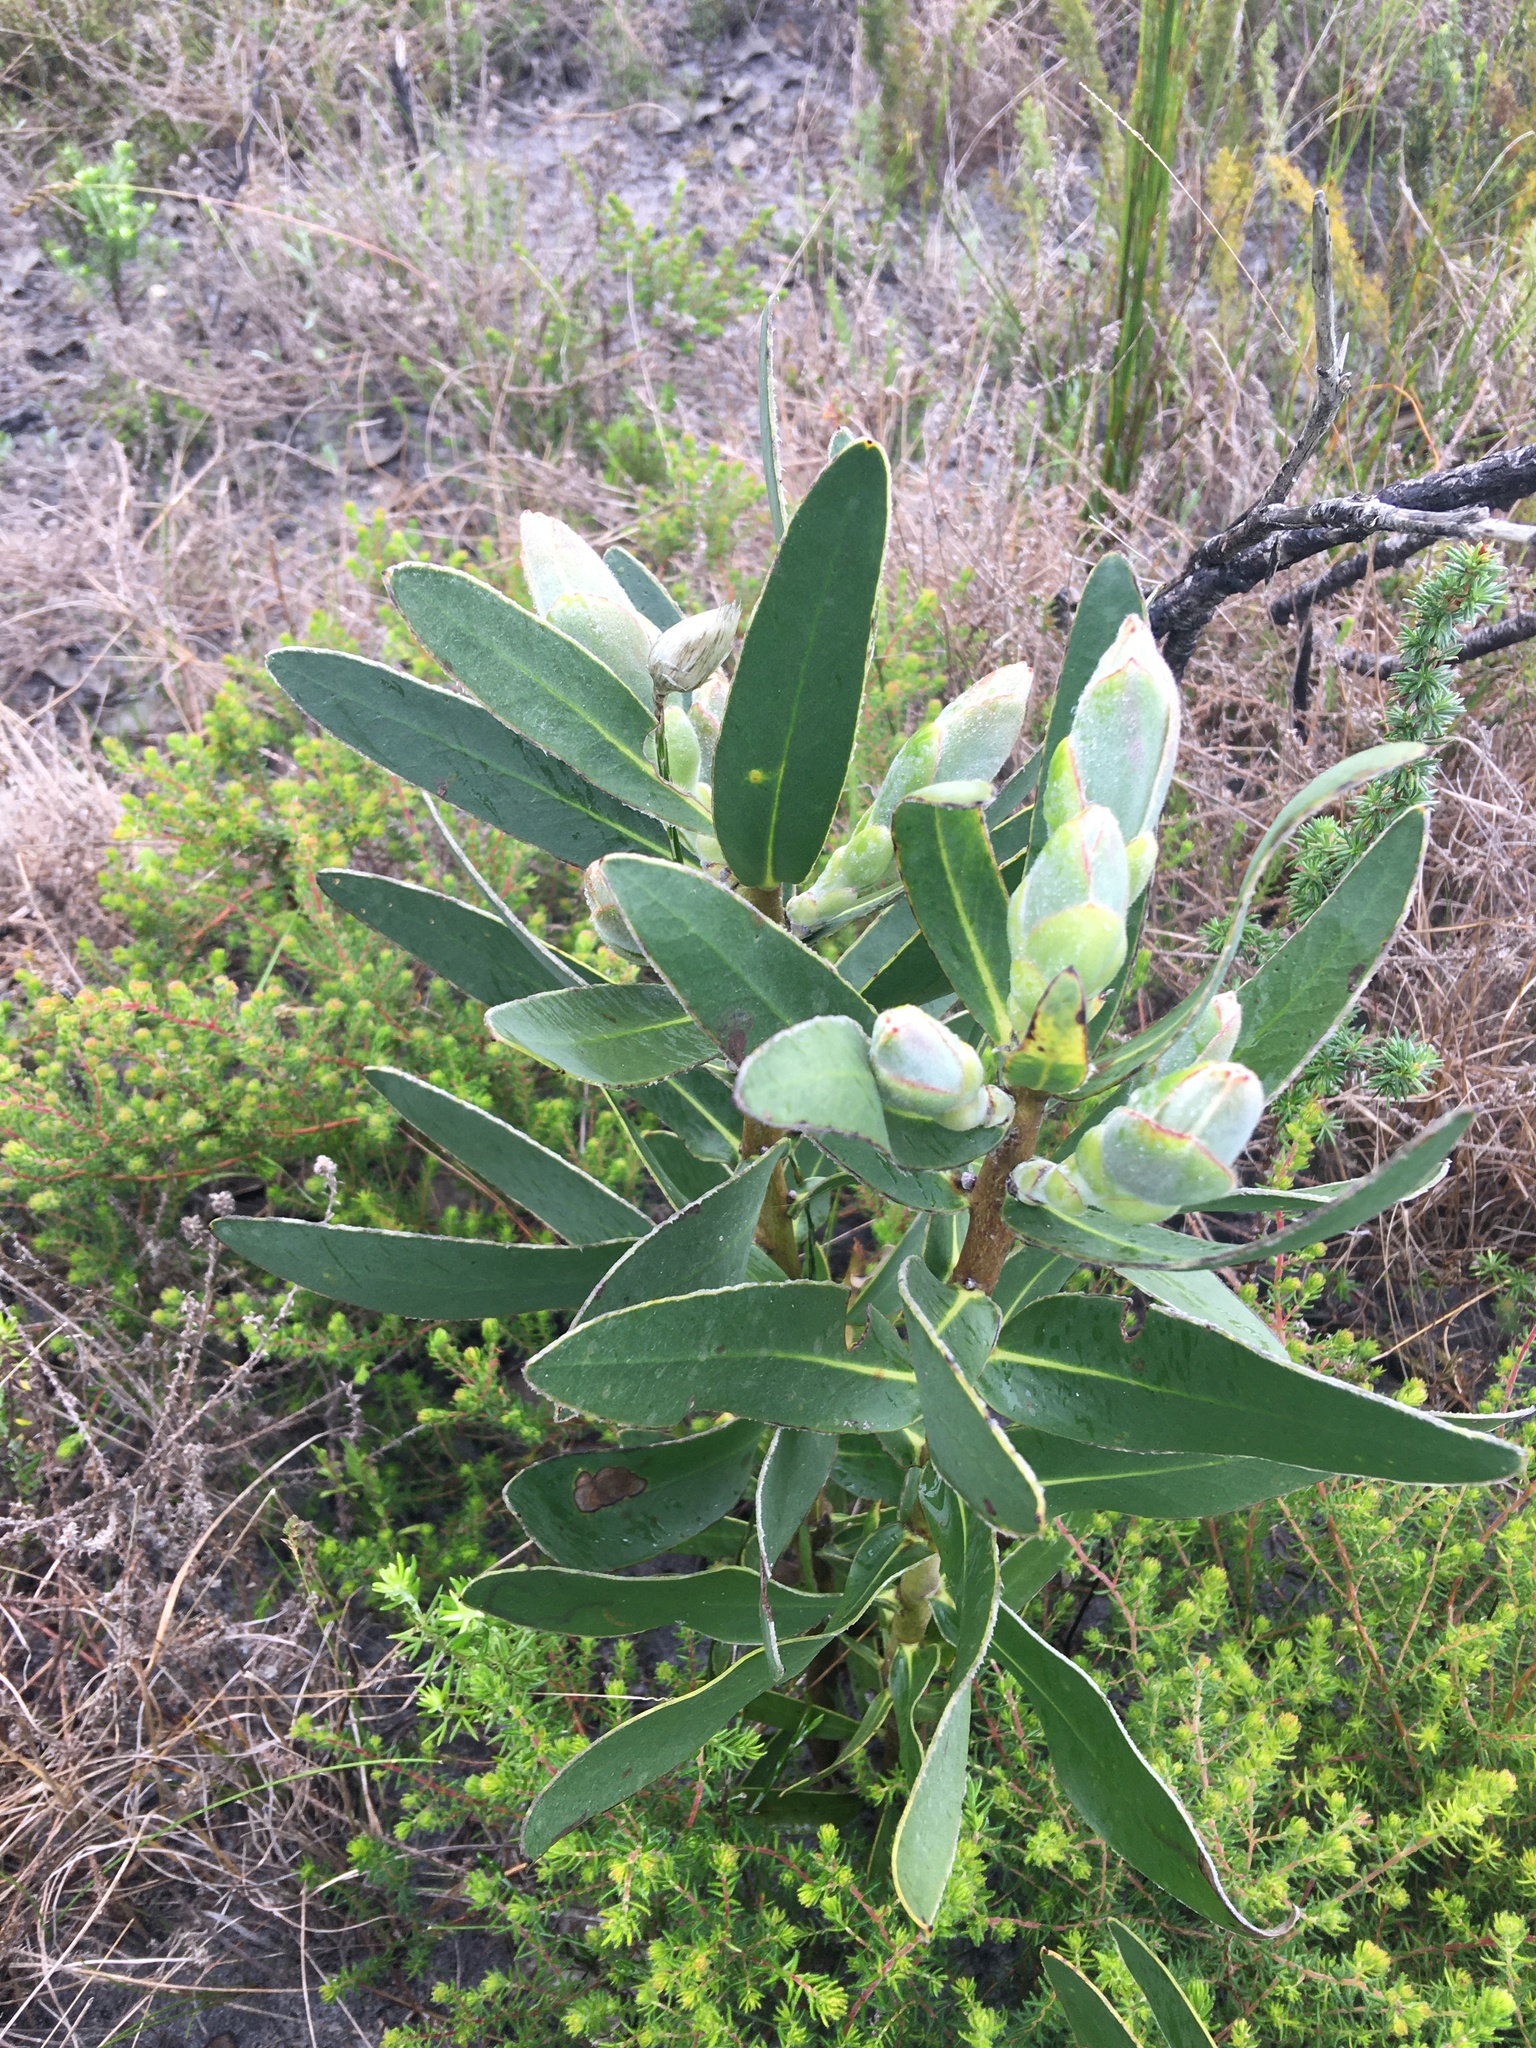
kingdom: Plantae
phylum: Tracheophyta
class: Magnoliopsida
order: Proteales
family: Proteaceae
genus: Protea
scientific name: Protea compacta
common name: Bot river protea
